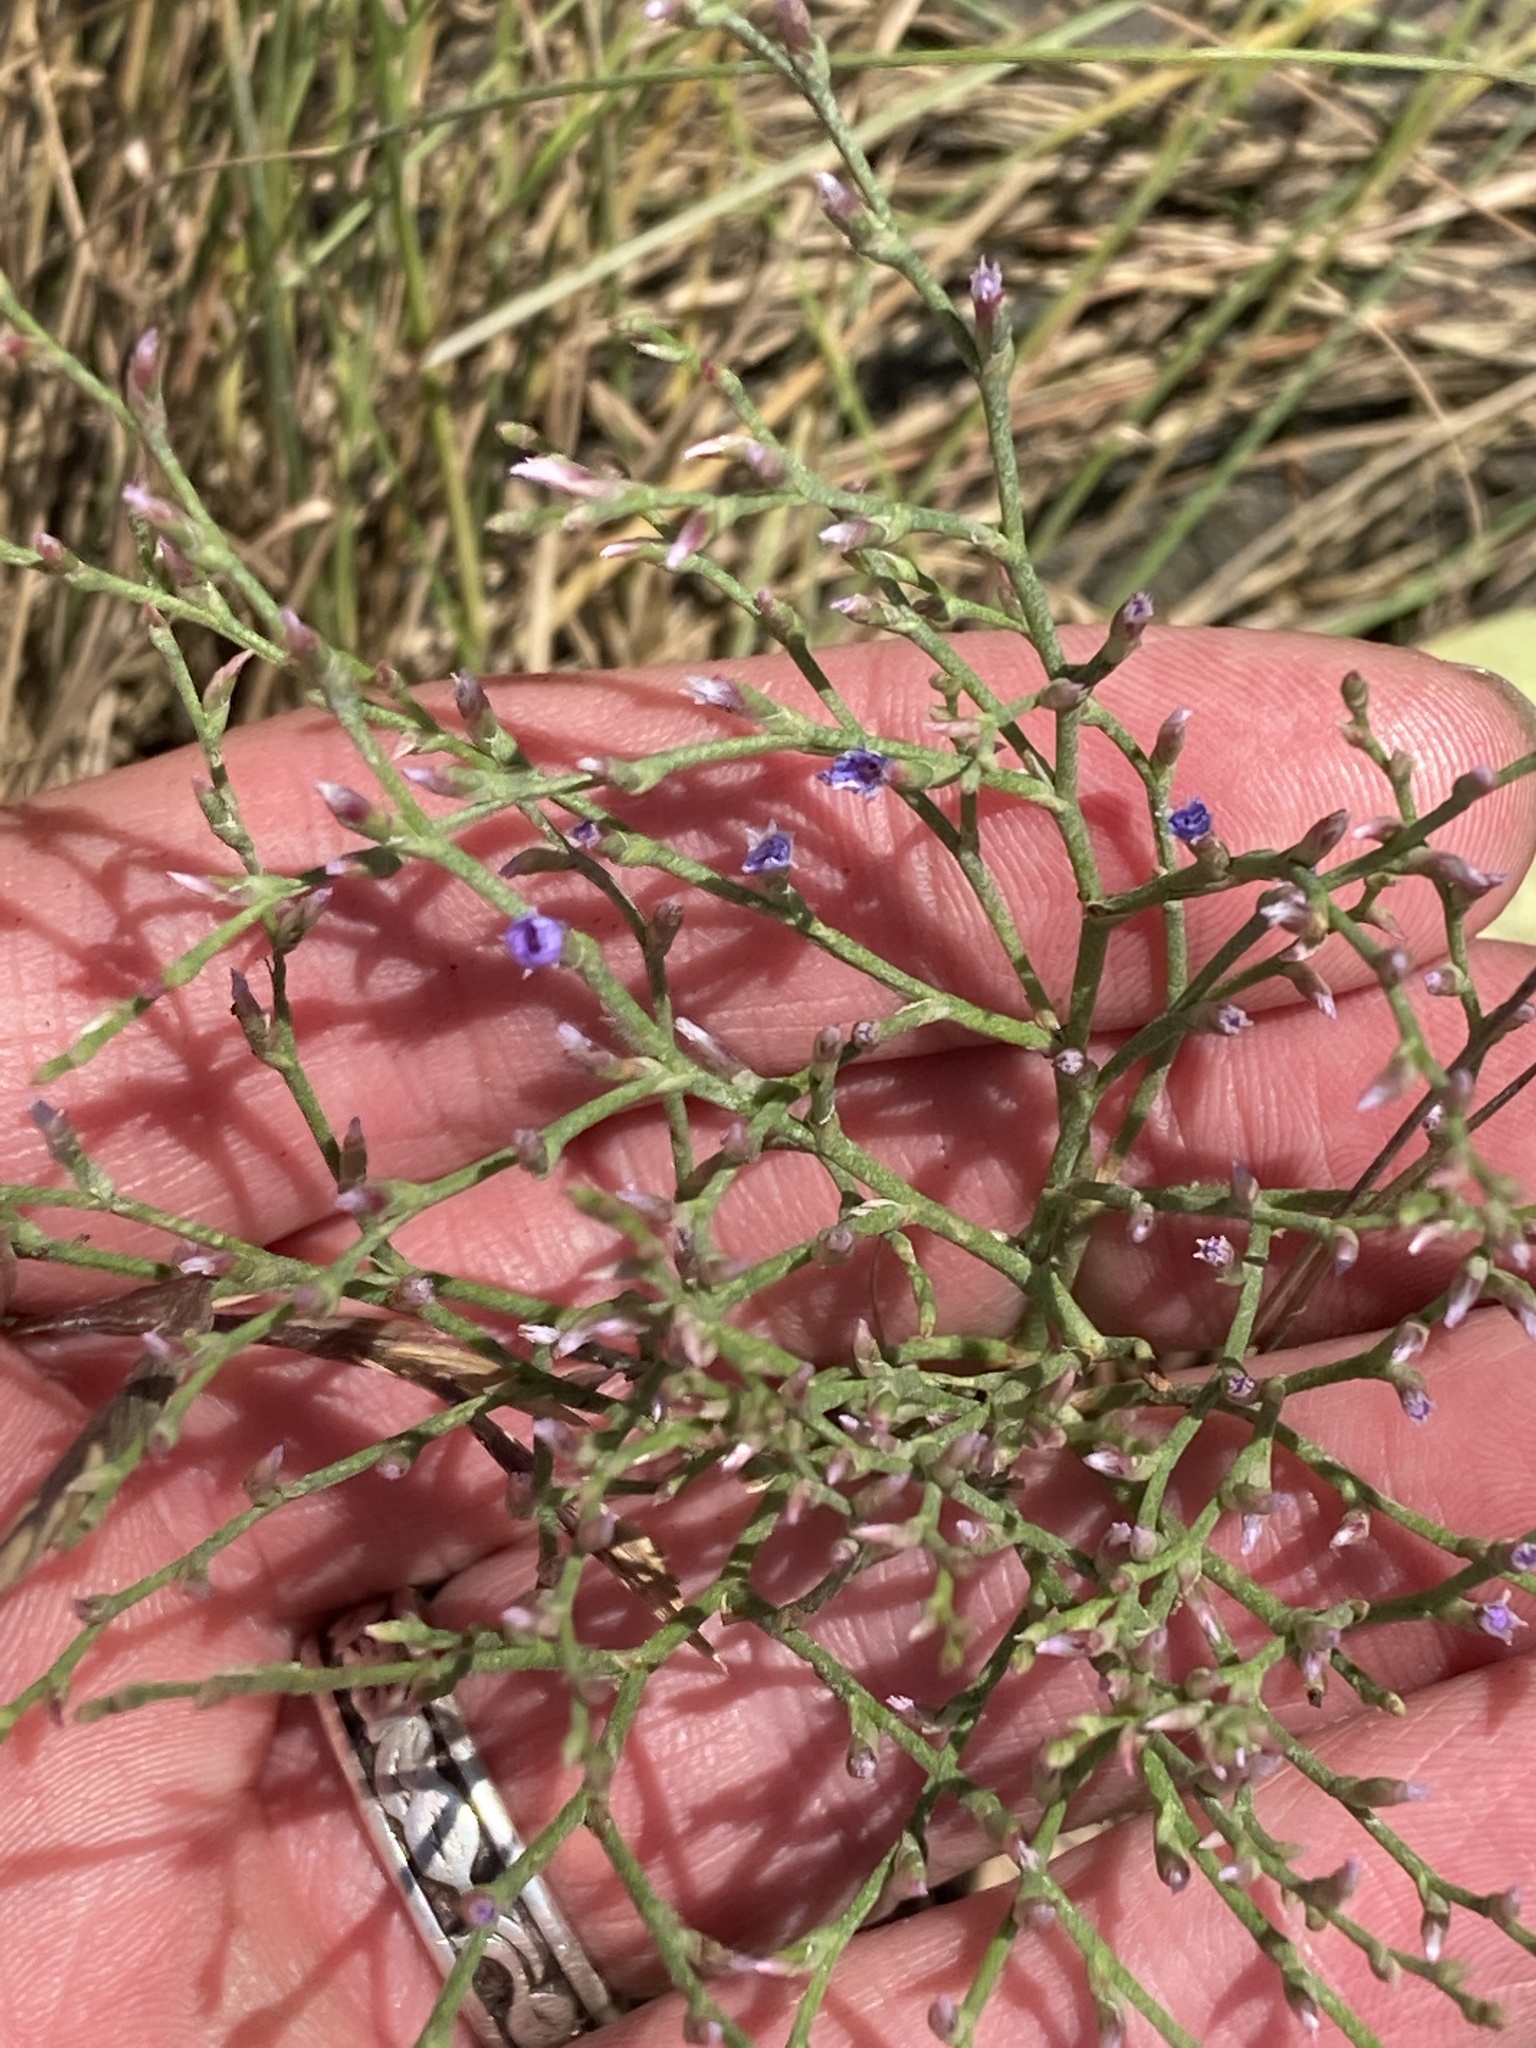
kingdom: Plantae
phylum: Tracheophyta
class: Magnoliopsida
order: Caryophyllales
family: Plumbaginaceae
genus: Limonium
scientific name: Limonium carolinianum
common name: Carolina sea lavender
